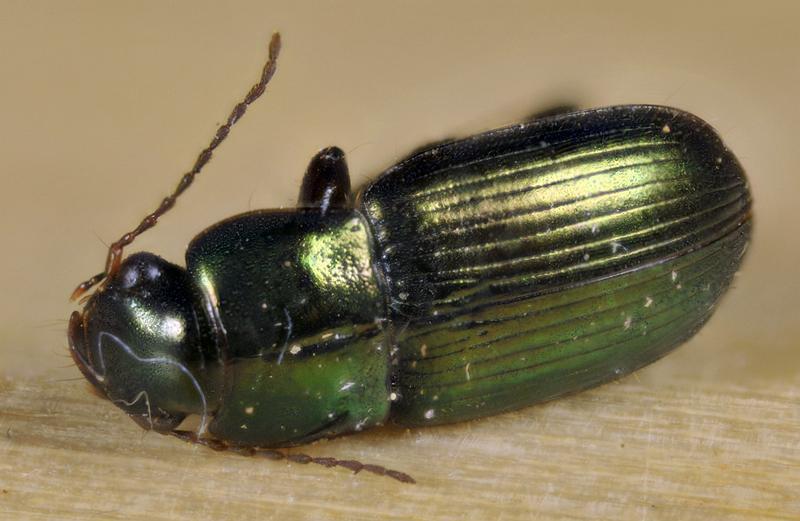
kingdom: Animalia
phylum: Arthropoda
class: Insecta
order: Coleoptera
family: Carabidae
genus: Harpalus
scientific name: Harpalus affinis
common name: Polychrome harp ground beetle
